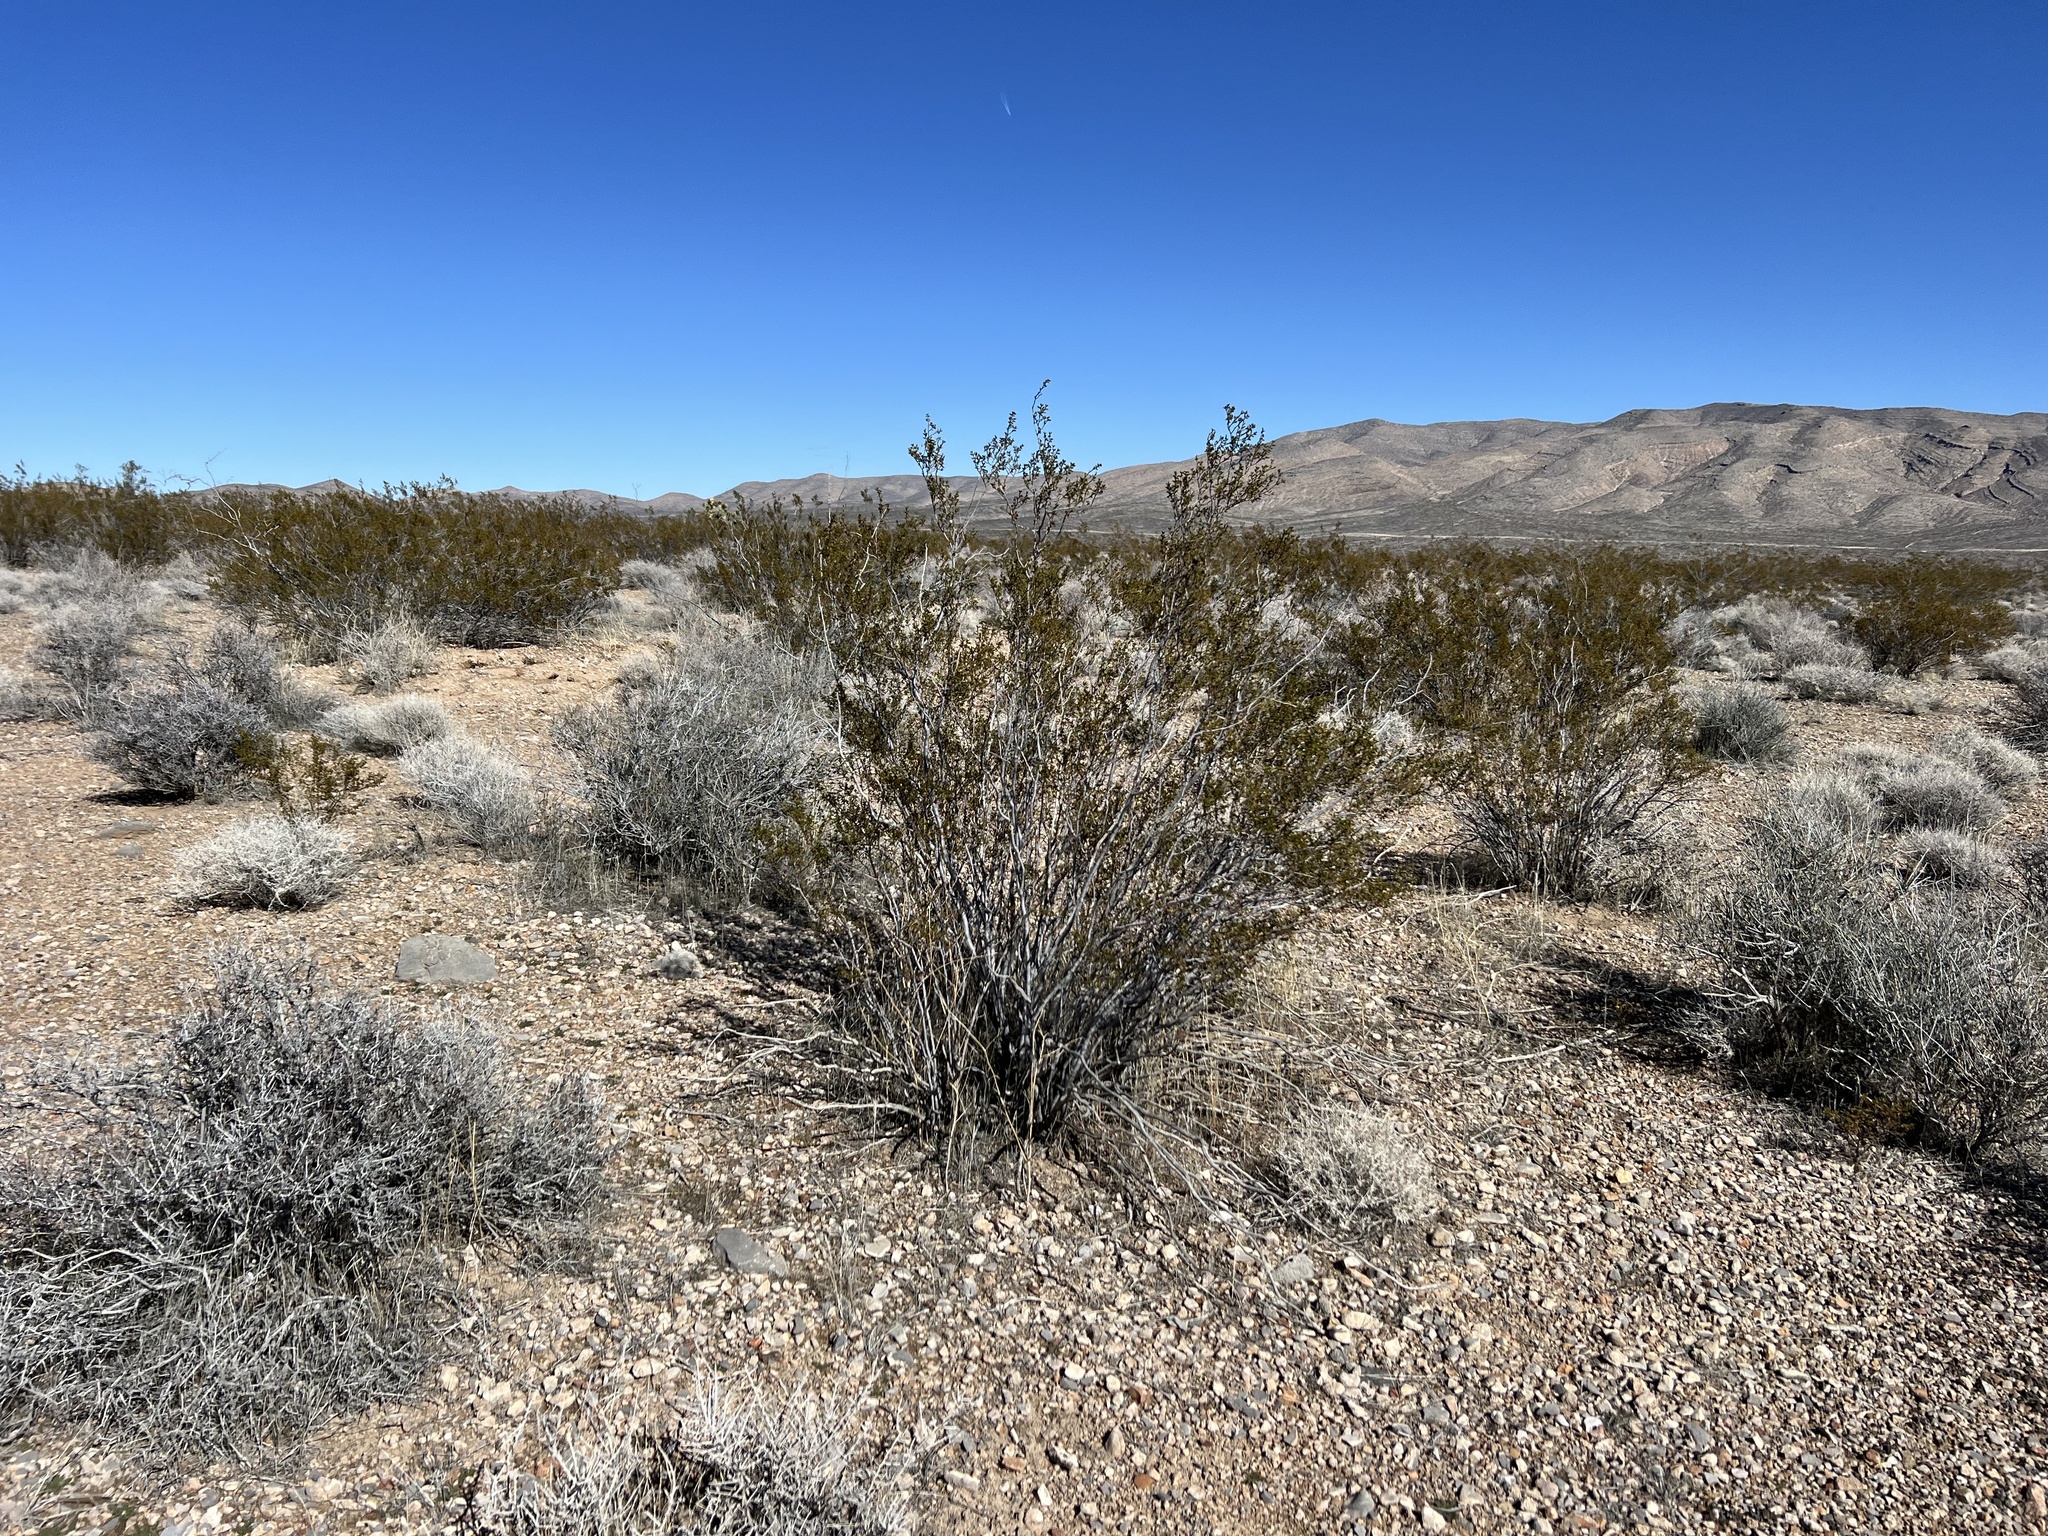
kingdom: Plantae
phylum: Tracheophyta
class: Magnoliopsida
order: Zygophyllales
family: Zygophyllaceae
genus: Larrea
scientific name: Larrea tridentata
